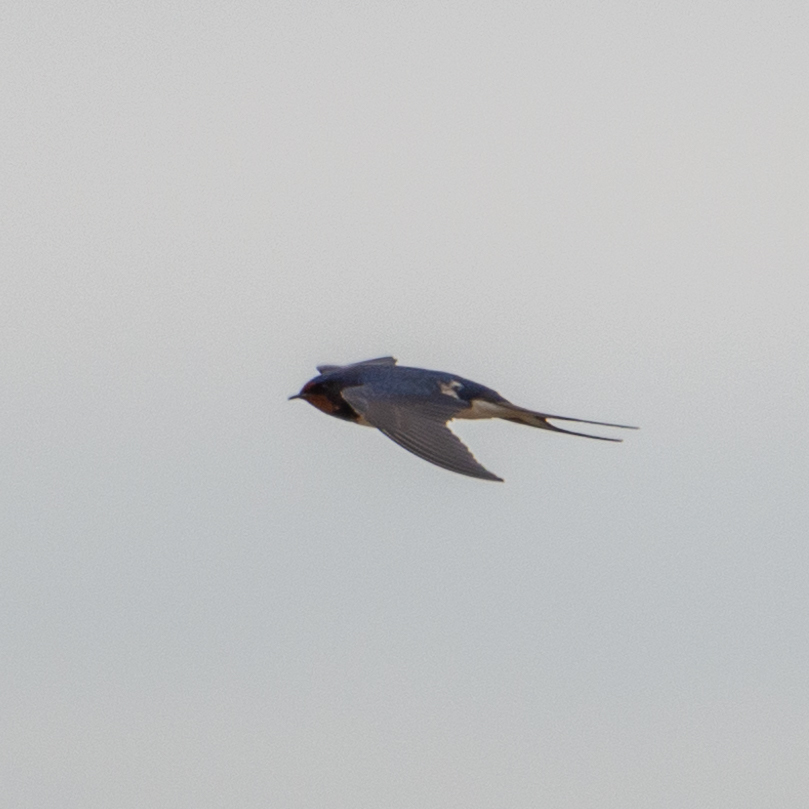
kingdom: Animalia
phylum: Chordata
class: Aves
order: Passeriformes
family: Hirundinidae
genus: Hirundo
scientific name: Hirundo rustica
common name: Barn swallow
